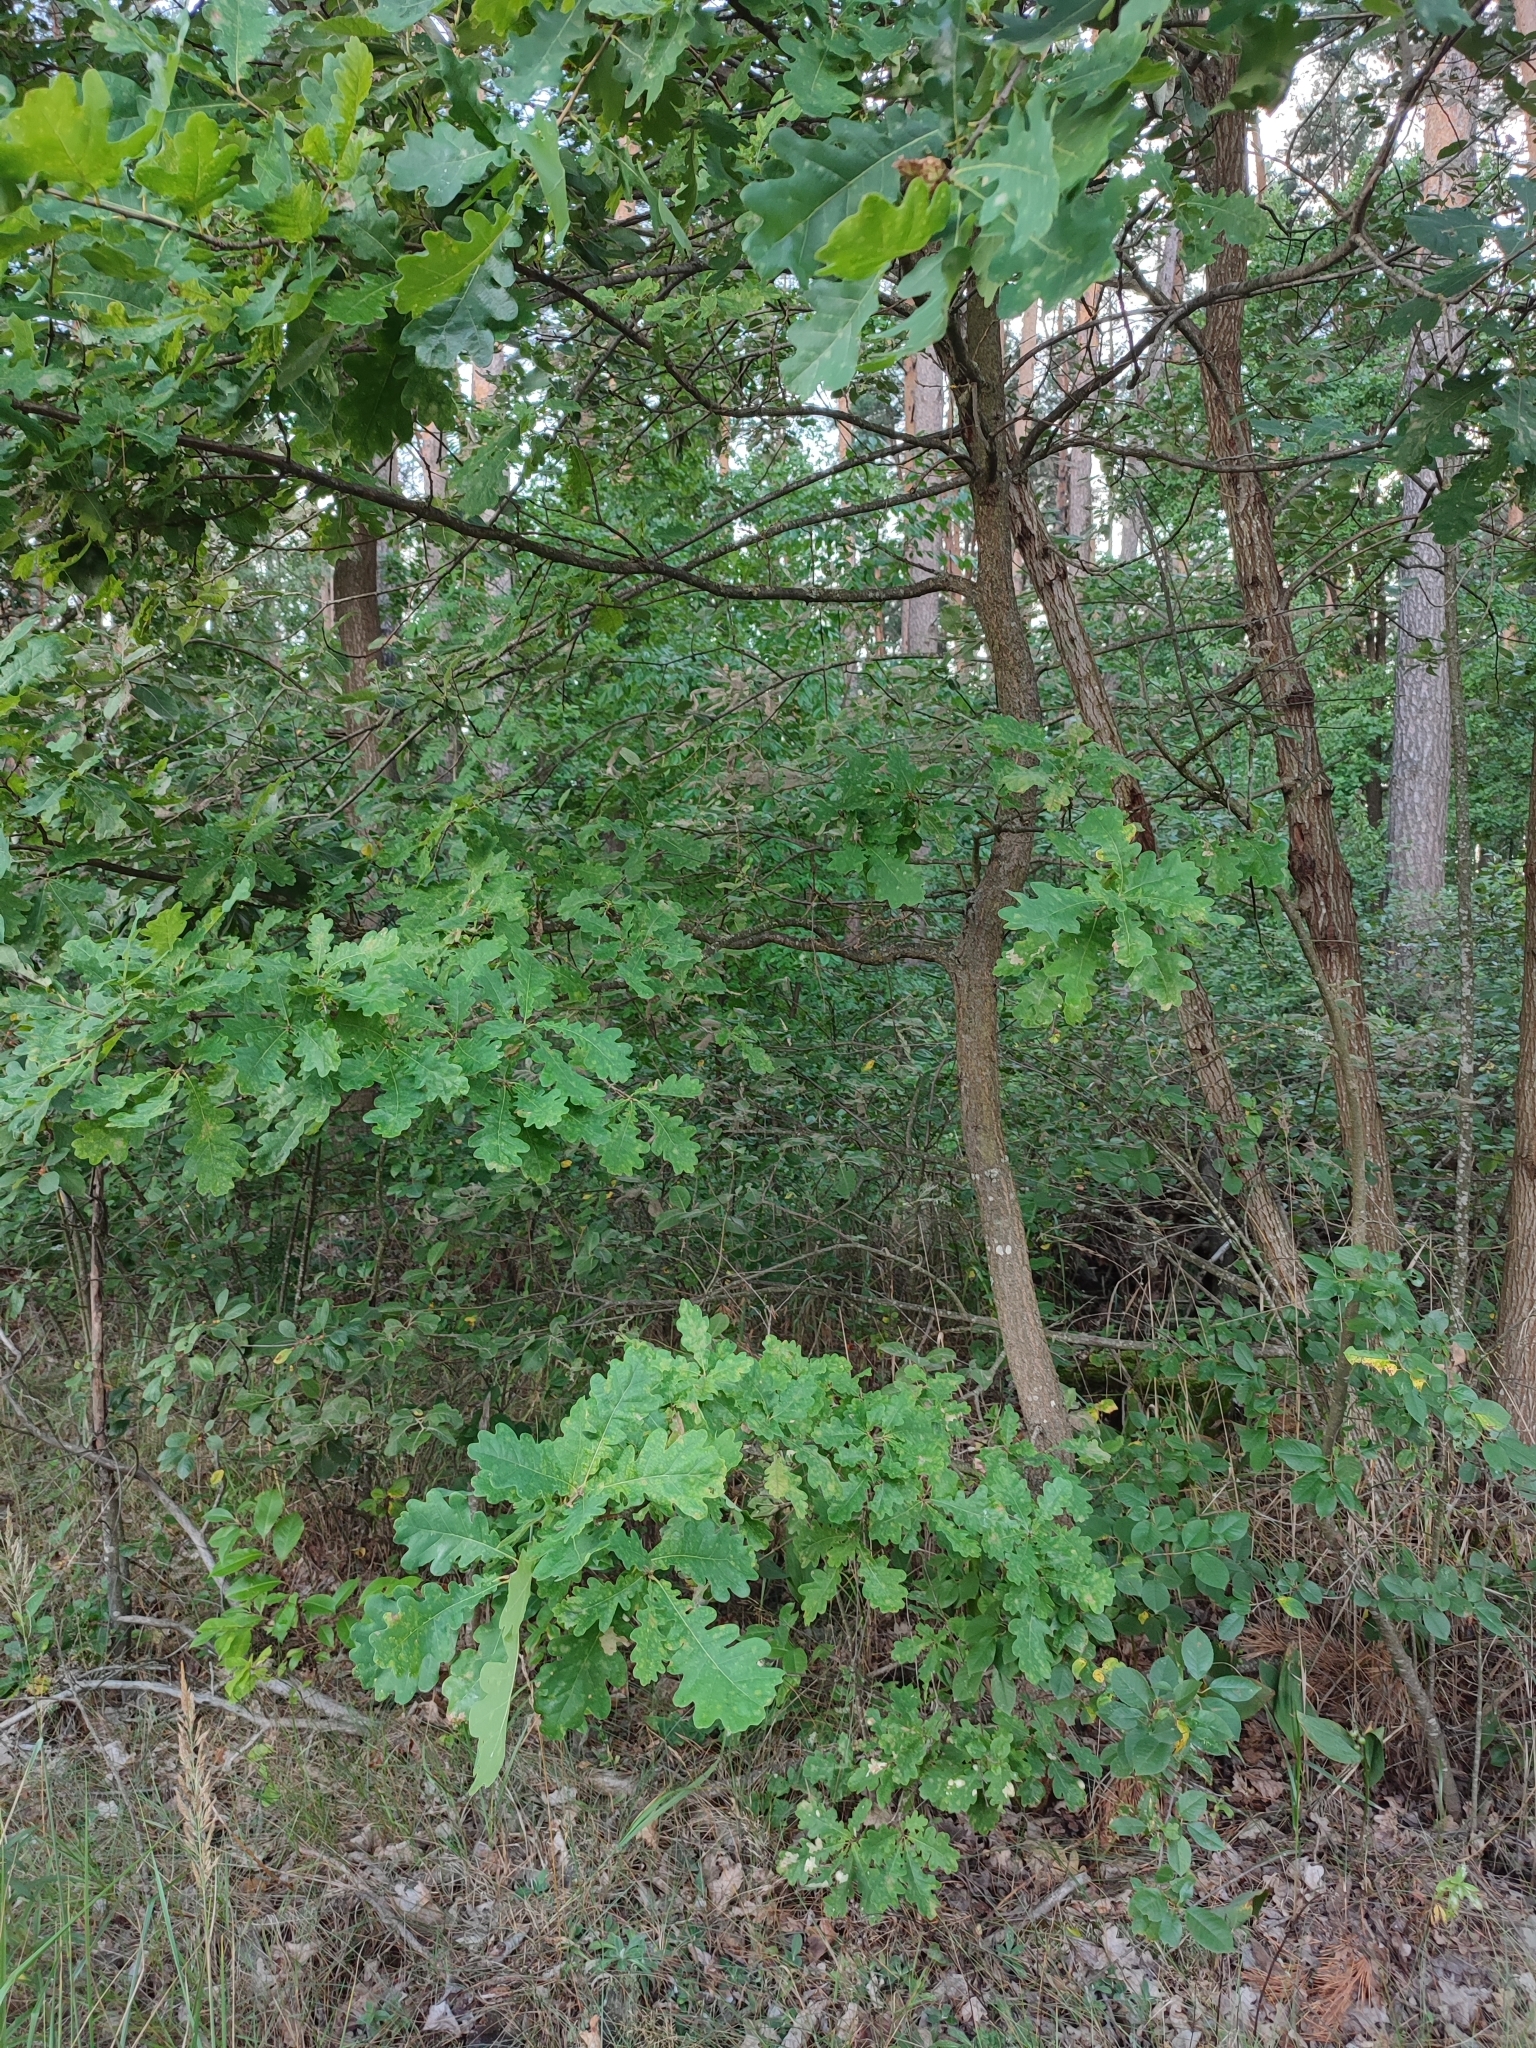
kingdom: Plantae
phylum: Tracheophyta
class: Magnoliopsida
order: Fagales
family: Fagaceae
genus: Quercus
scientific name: Quercus robur
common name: Pedunculate oak
